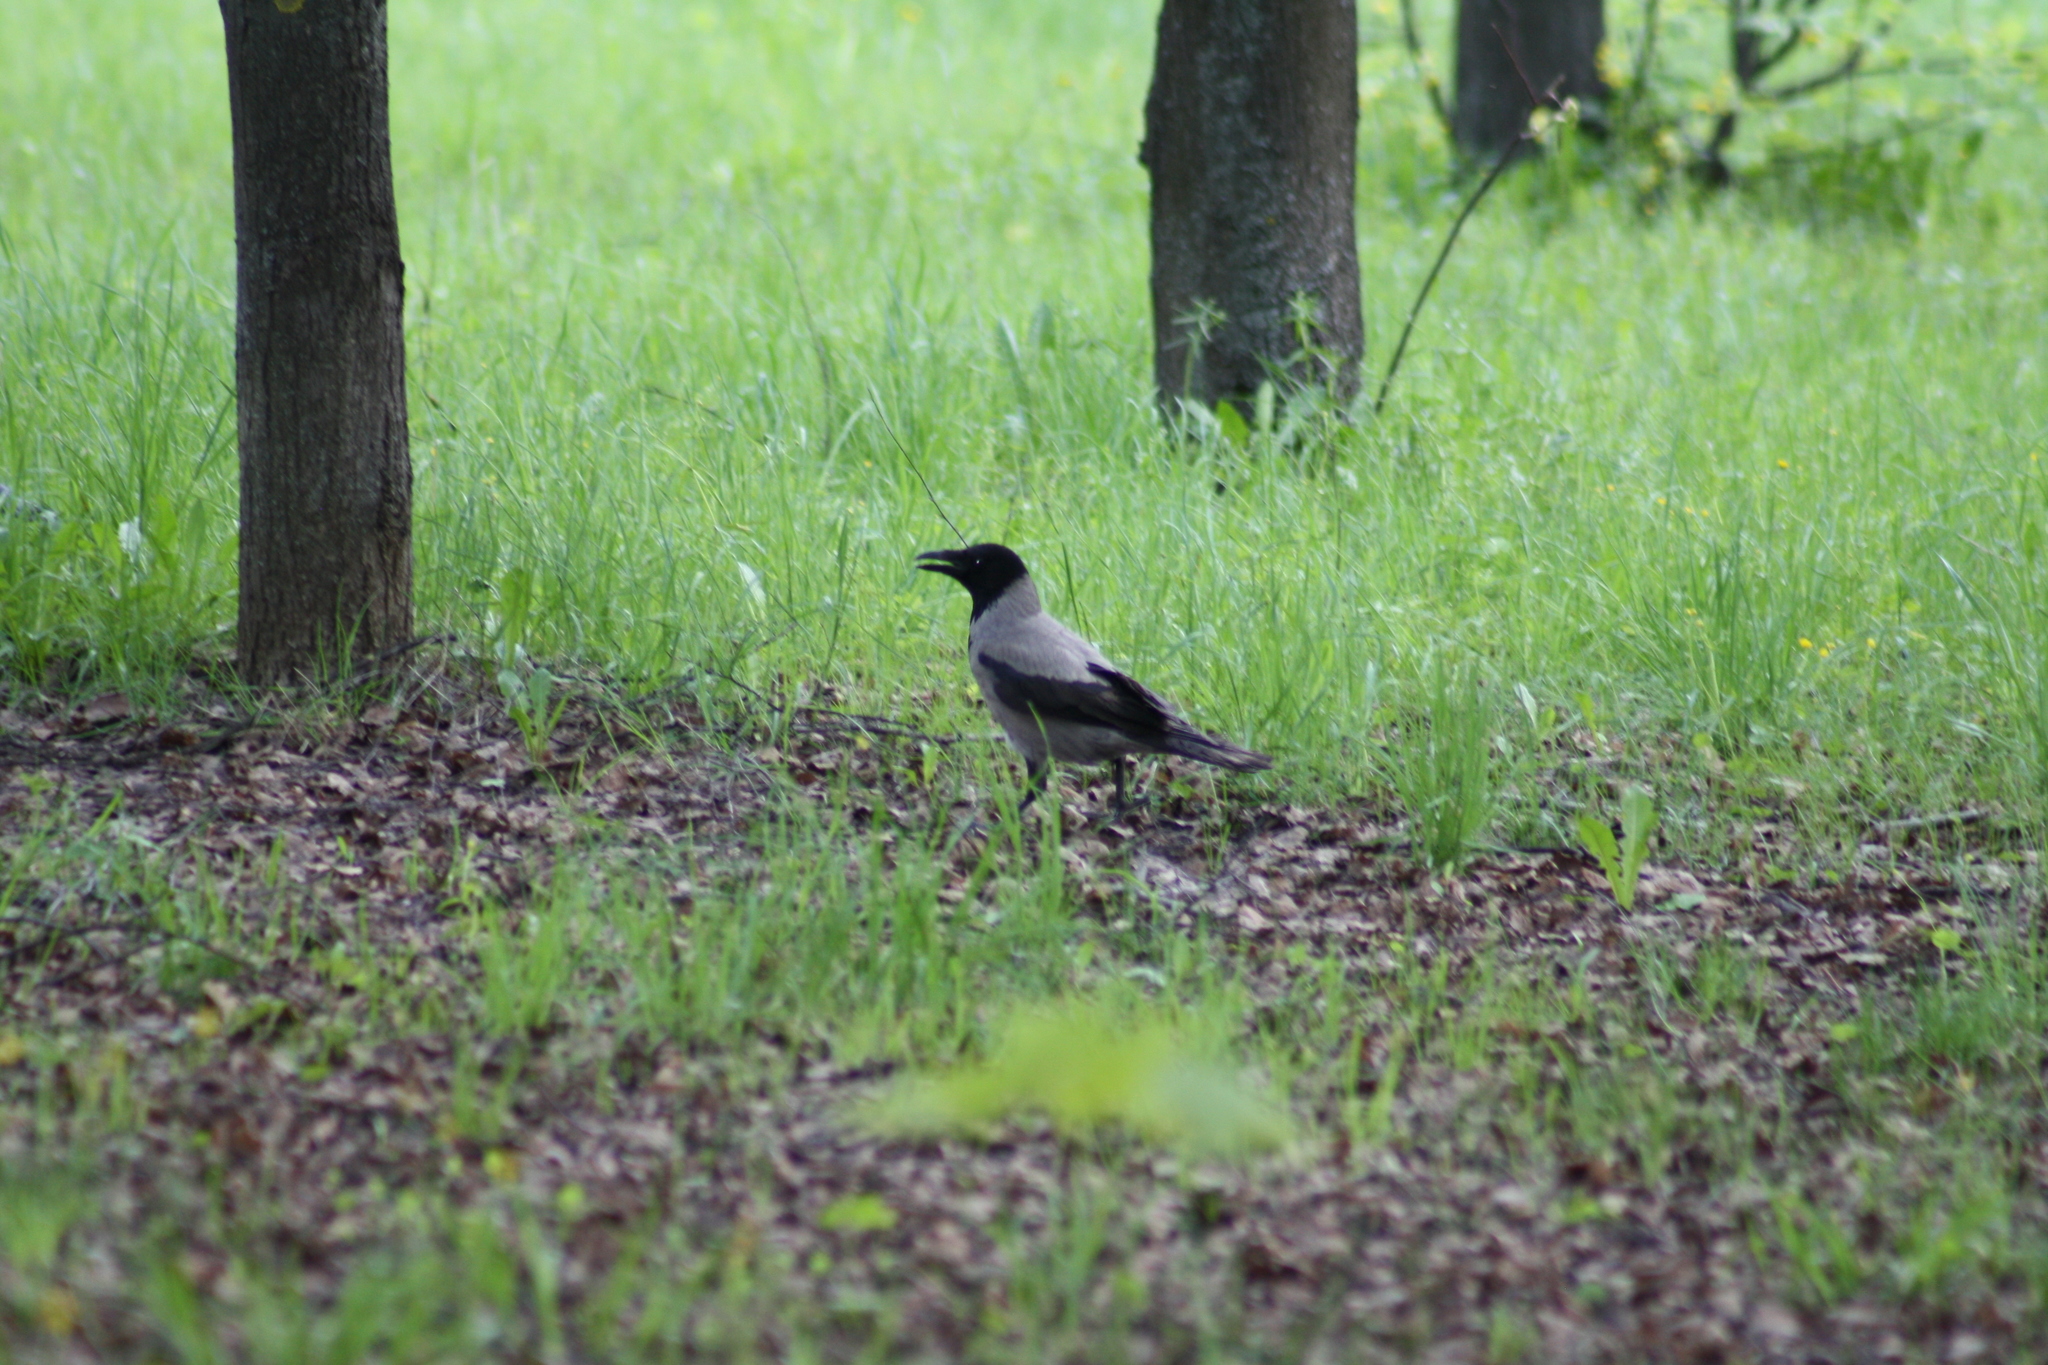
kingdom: Animalia
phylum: Chordata
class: Aves
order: Passeriformes
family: Corvidae
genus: Corvus
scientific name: Corvus cornix
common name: Hooded crow
